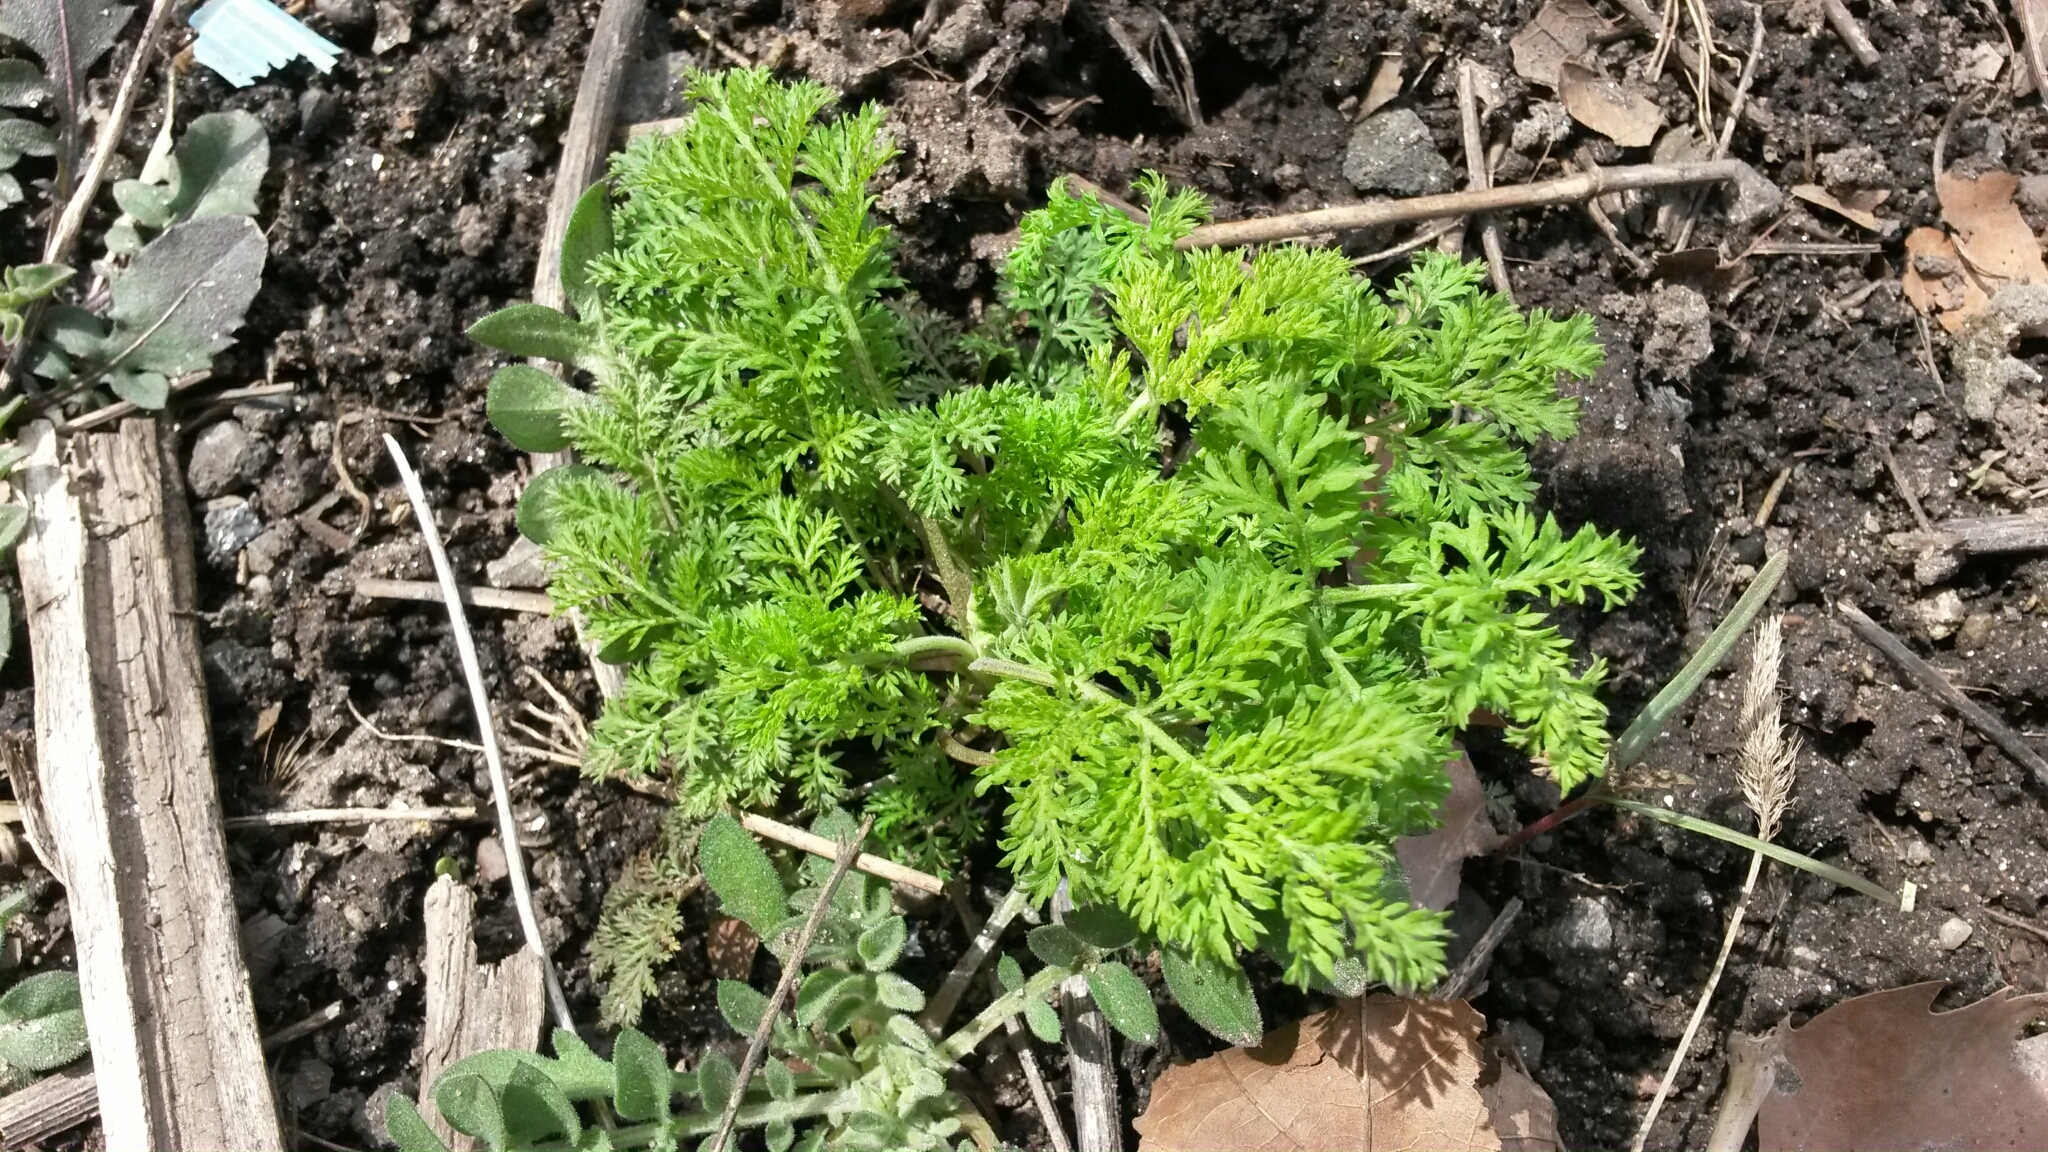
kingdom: Plantae
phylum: Tracheophyta
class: Magnoliopsida
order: Asterales
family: Asteraceae
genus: Artemisia
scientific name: Artemisia annua
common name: Sweet sagewort
